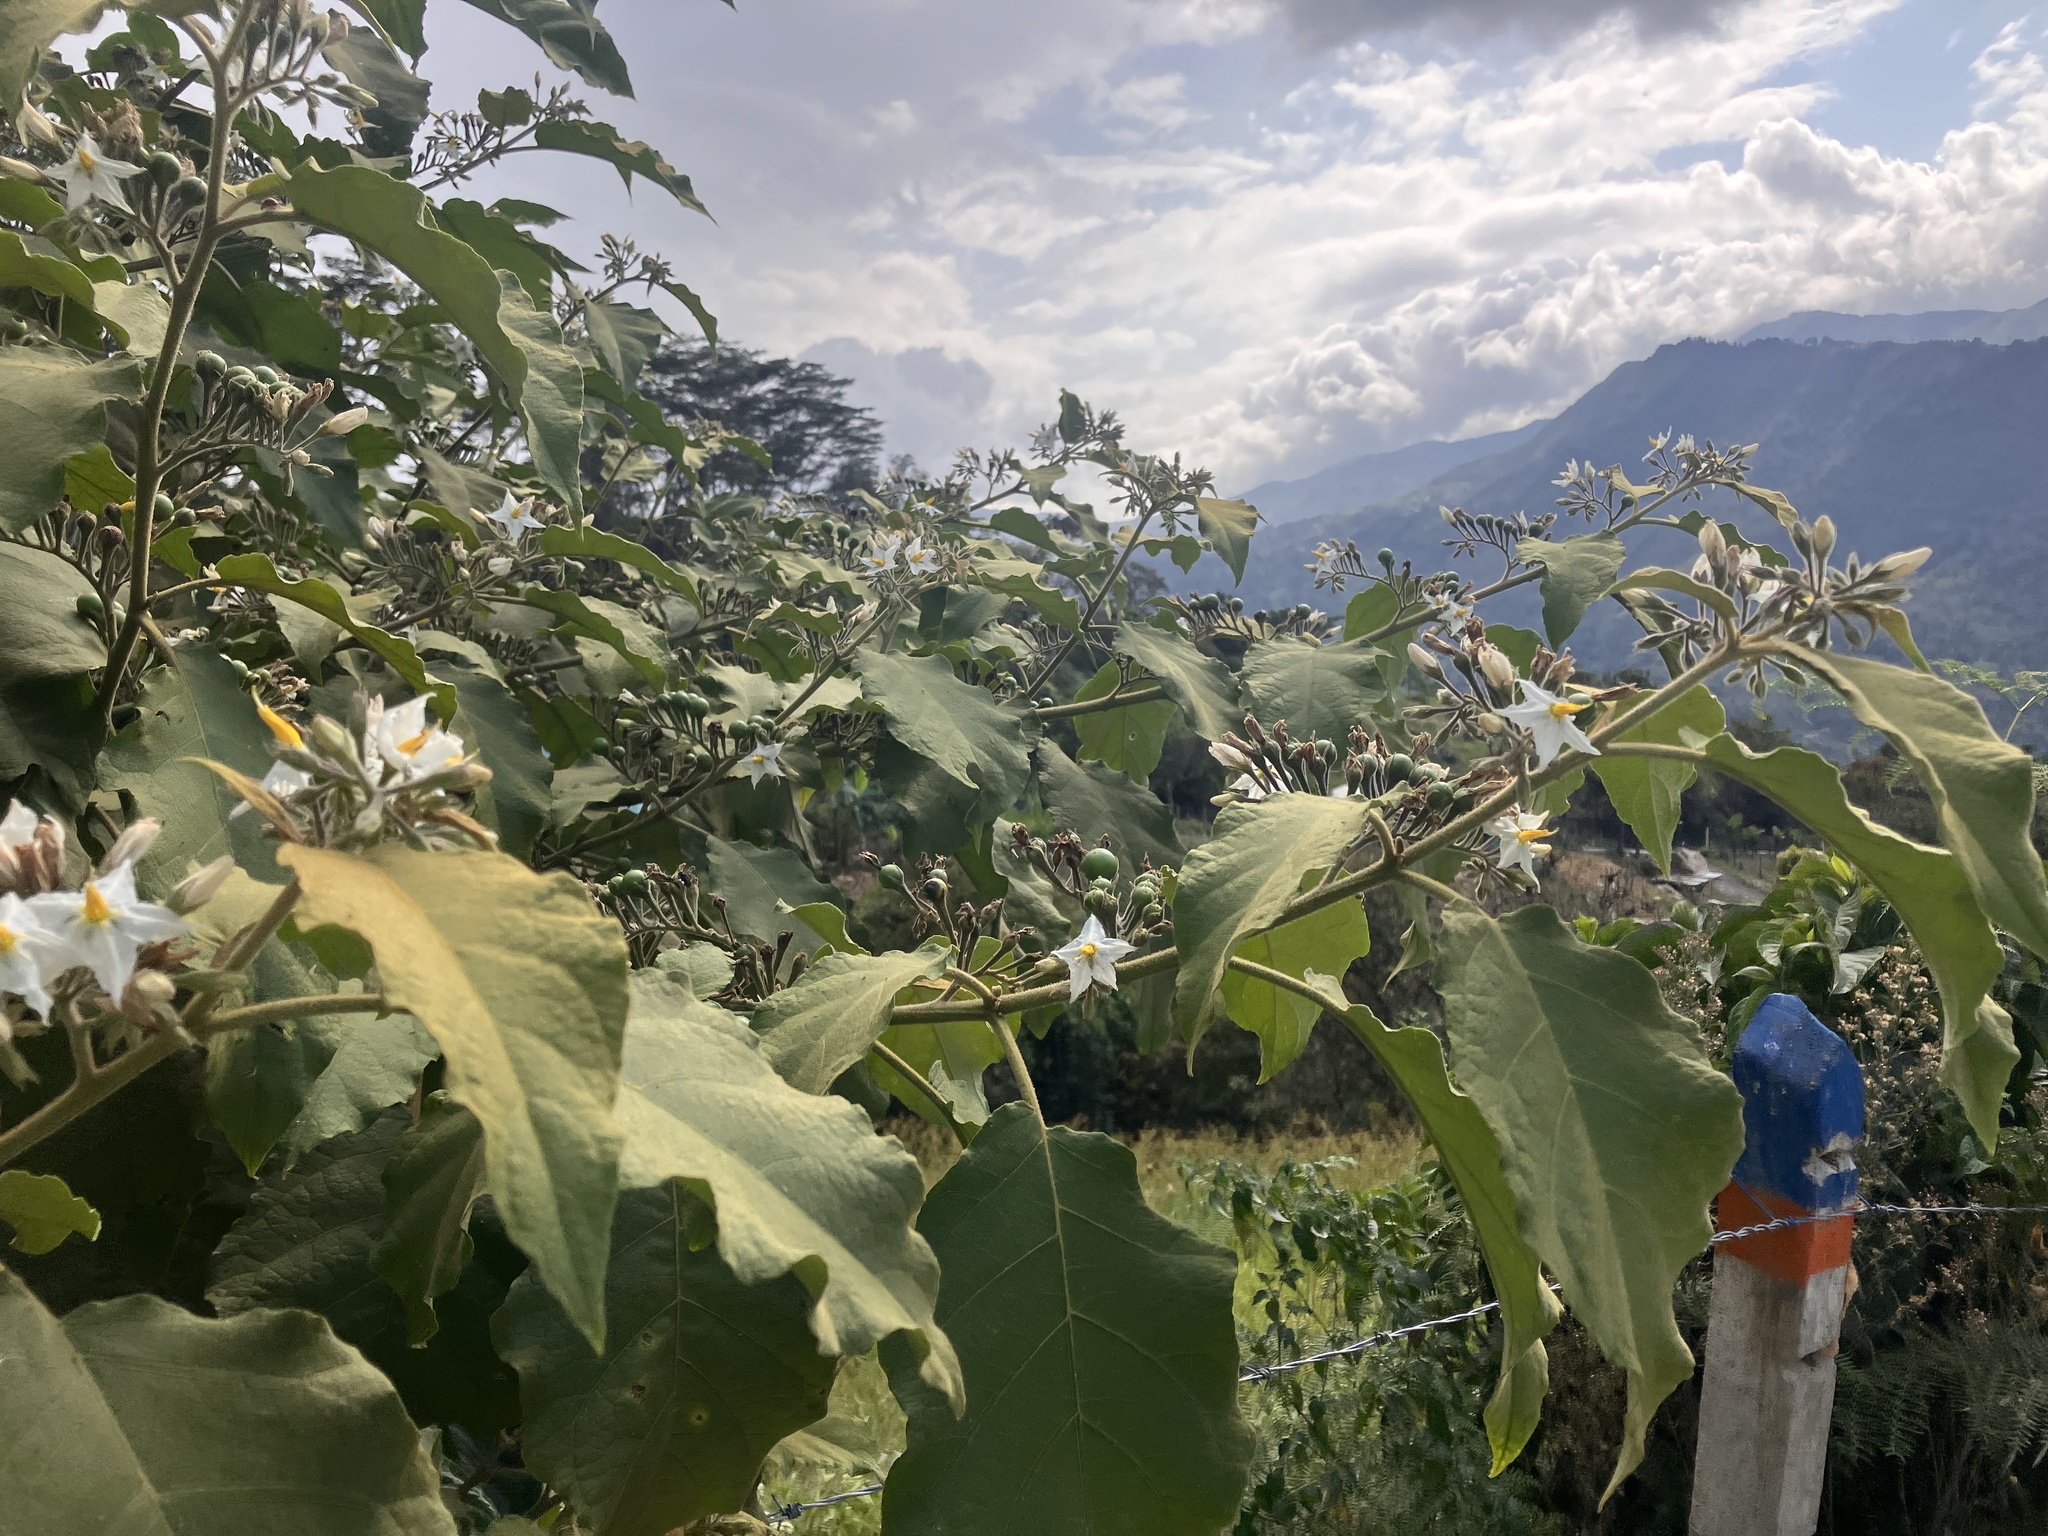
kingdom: Plantae
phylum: Tracheophyta
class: Magnoliopsida
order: Solanales
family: Solanaceae
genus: Solanum
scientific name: Solanum torvum
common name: Turkey berry
